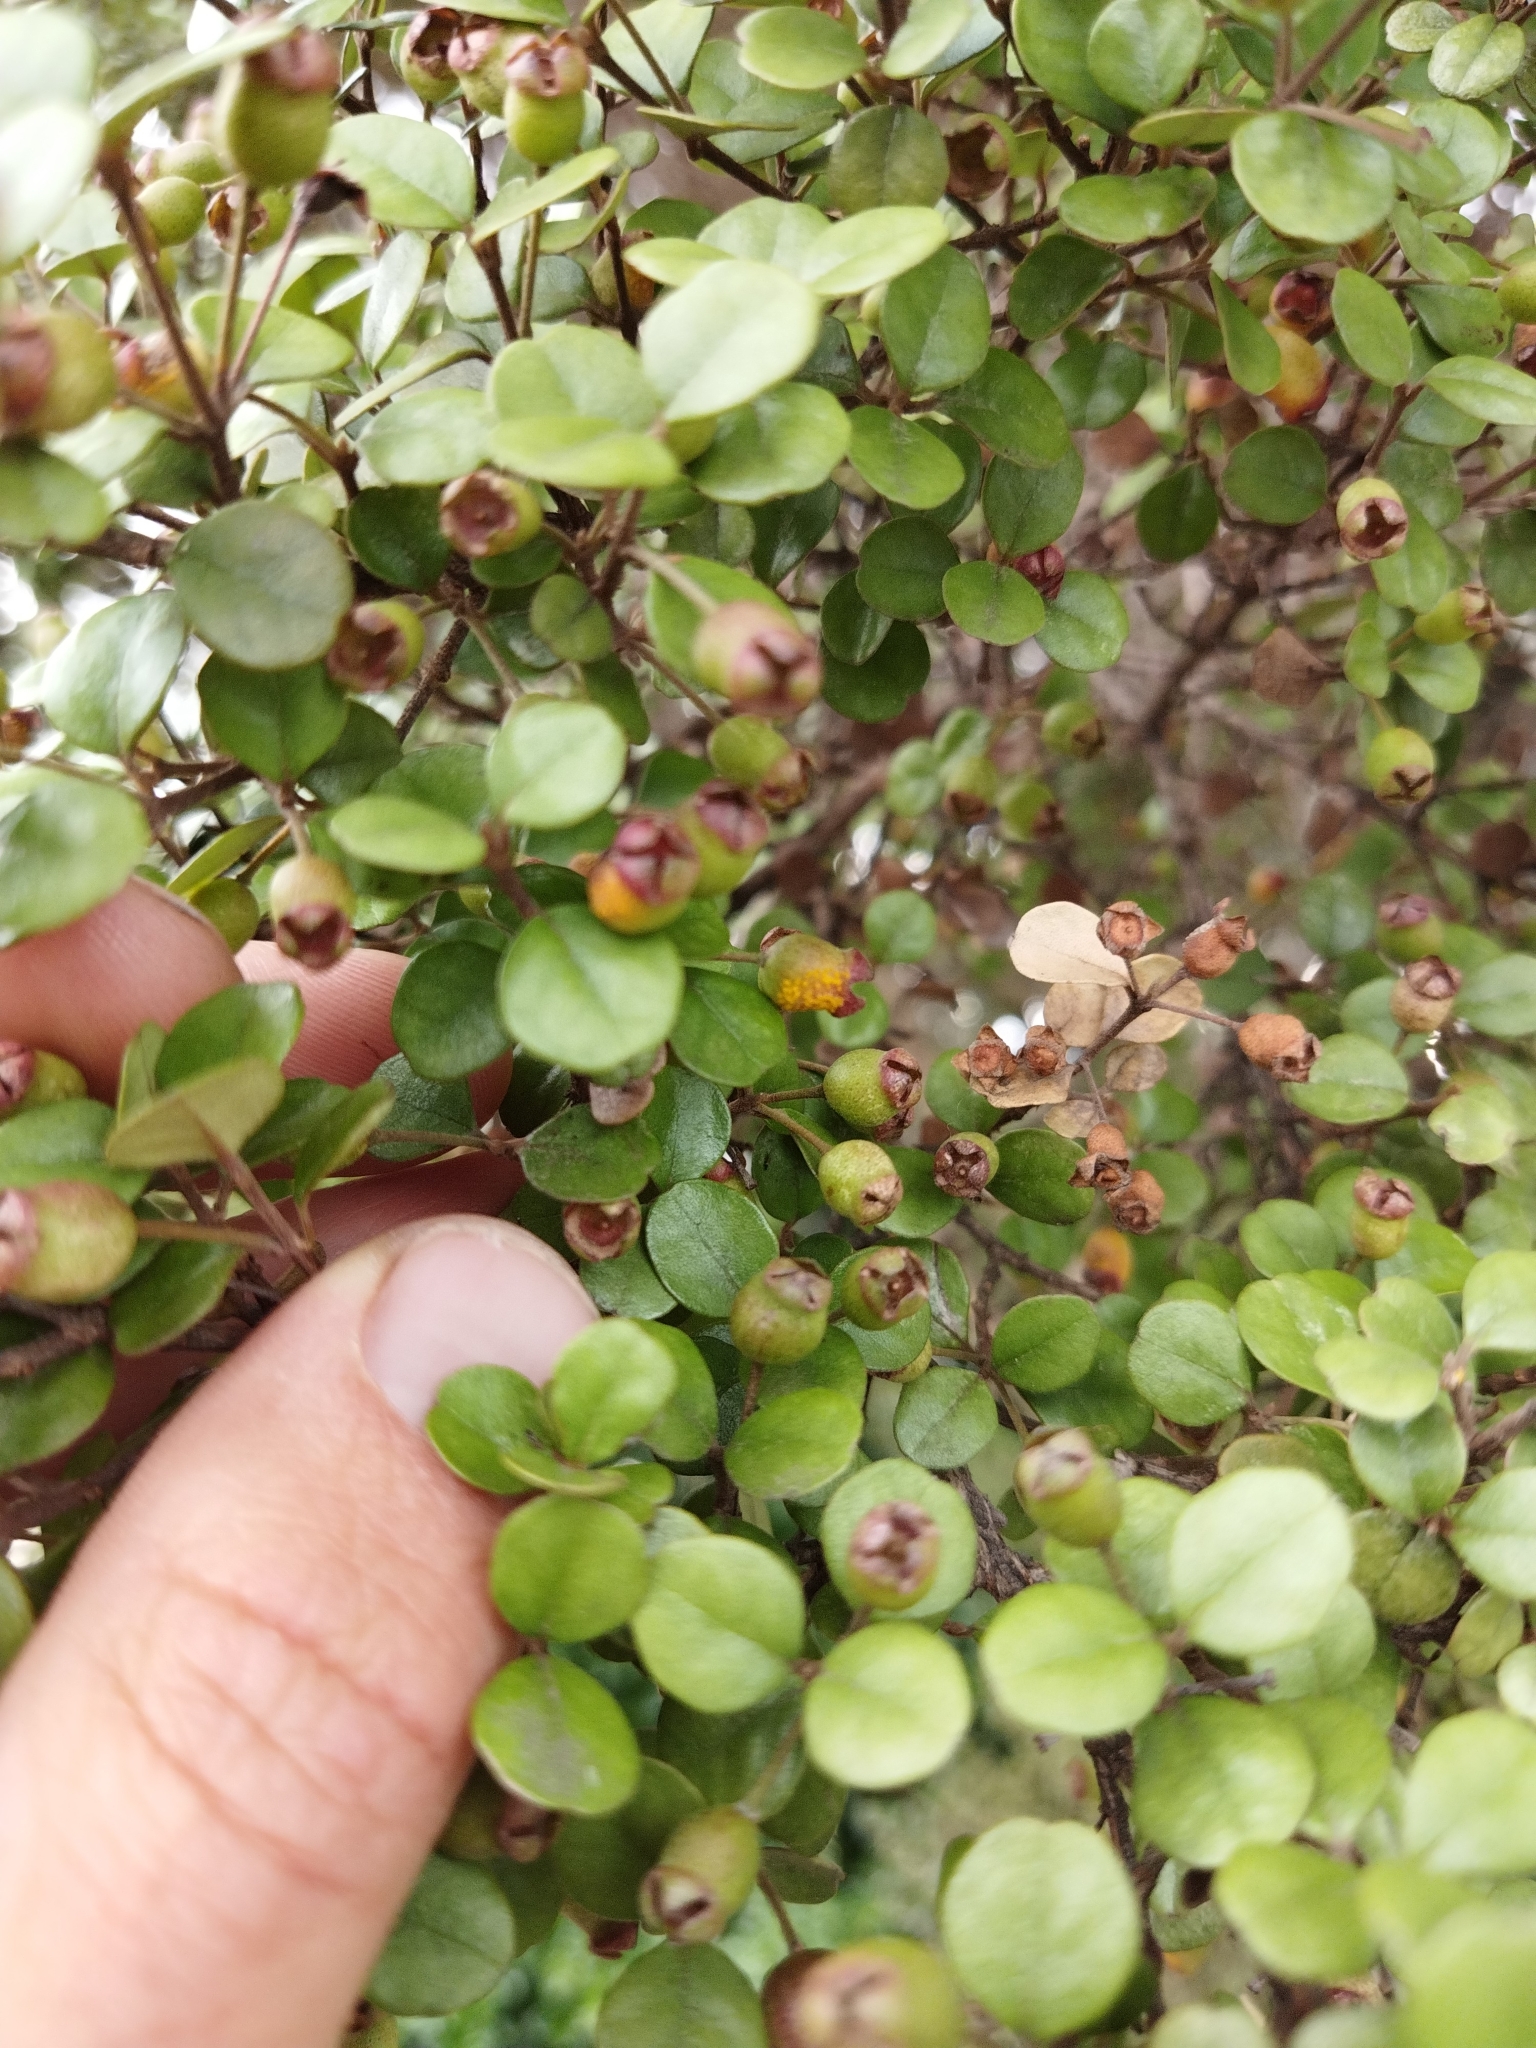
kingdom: Fungi
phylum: Basidiomycota
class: Pucciniomycetes
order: Pucciniales
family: Sphaerophragmiaceae
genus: Austropuccinia
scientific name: Austropuccinia psidii
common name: Myrtle rust
